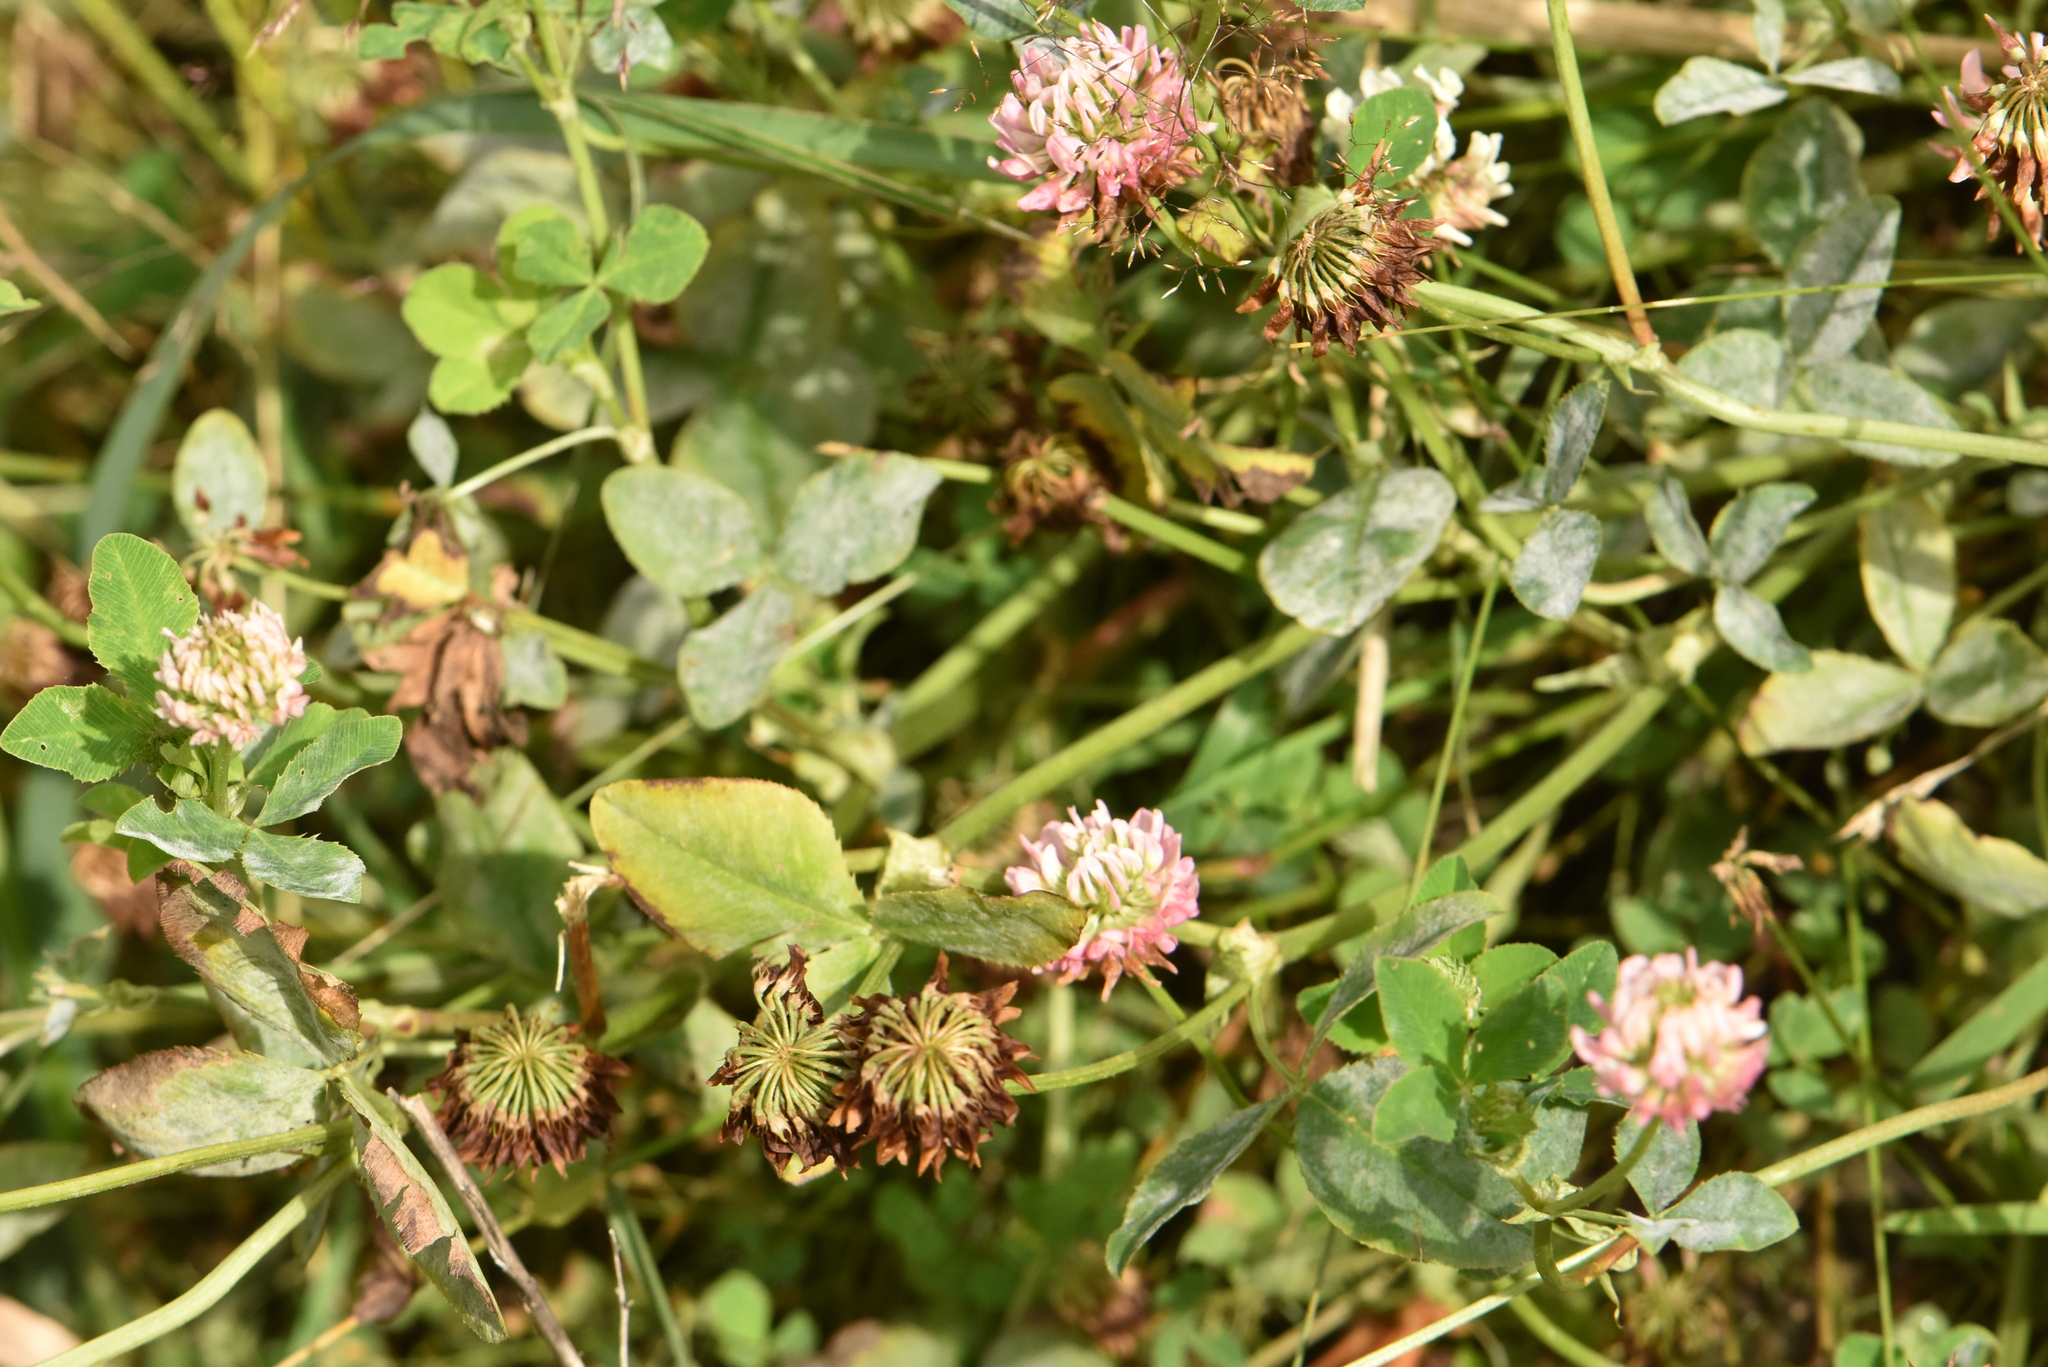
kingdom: Plantae
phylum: Tracheophyta
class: Magnoliopsida
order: Fabales
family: Fabaceae
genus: Trifolium
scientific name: Trifolium hybridum
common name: Alsike clover
